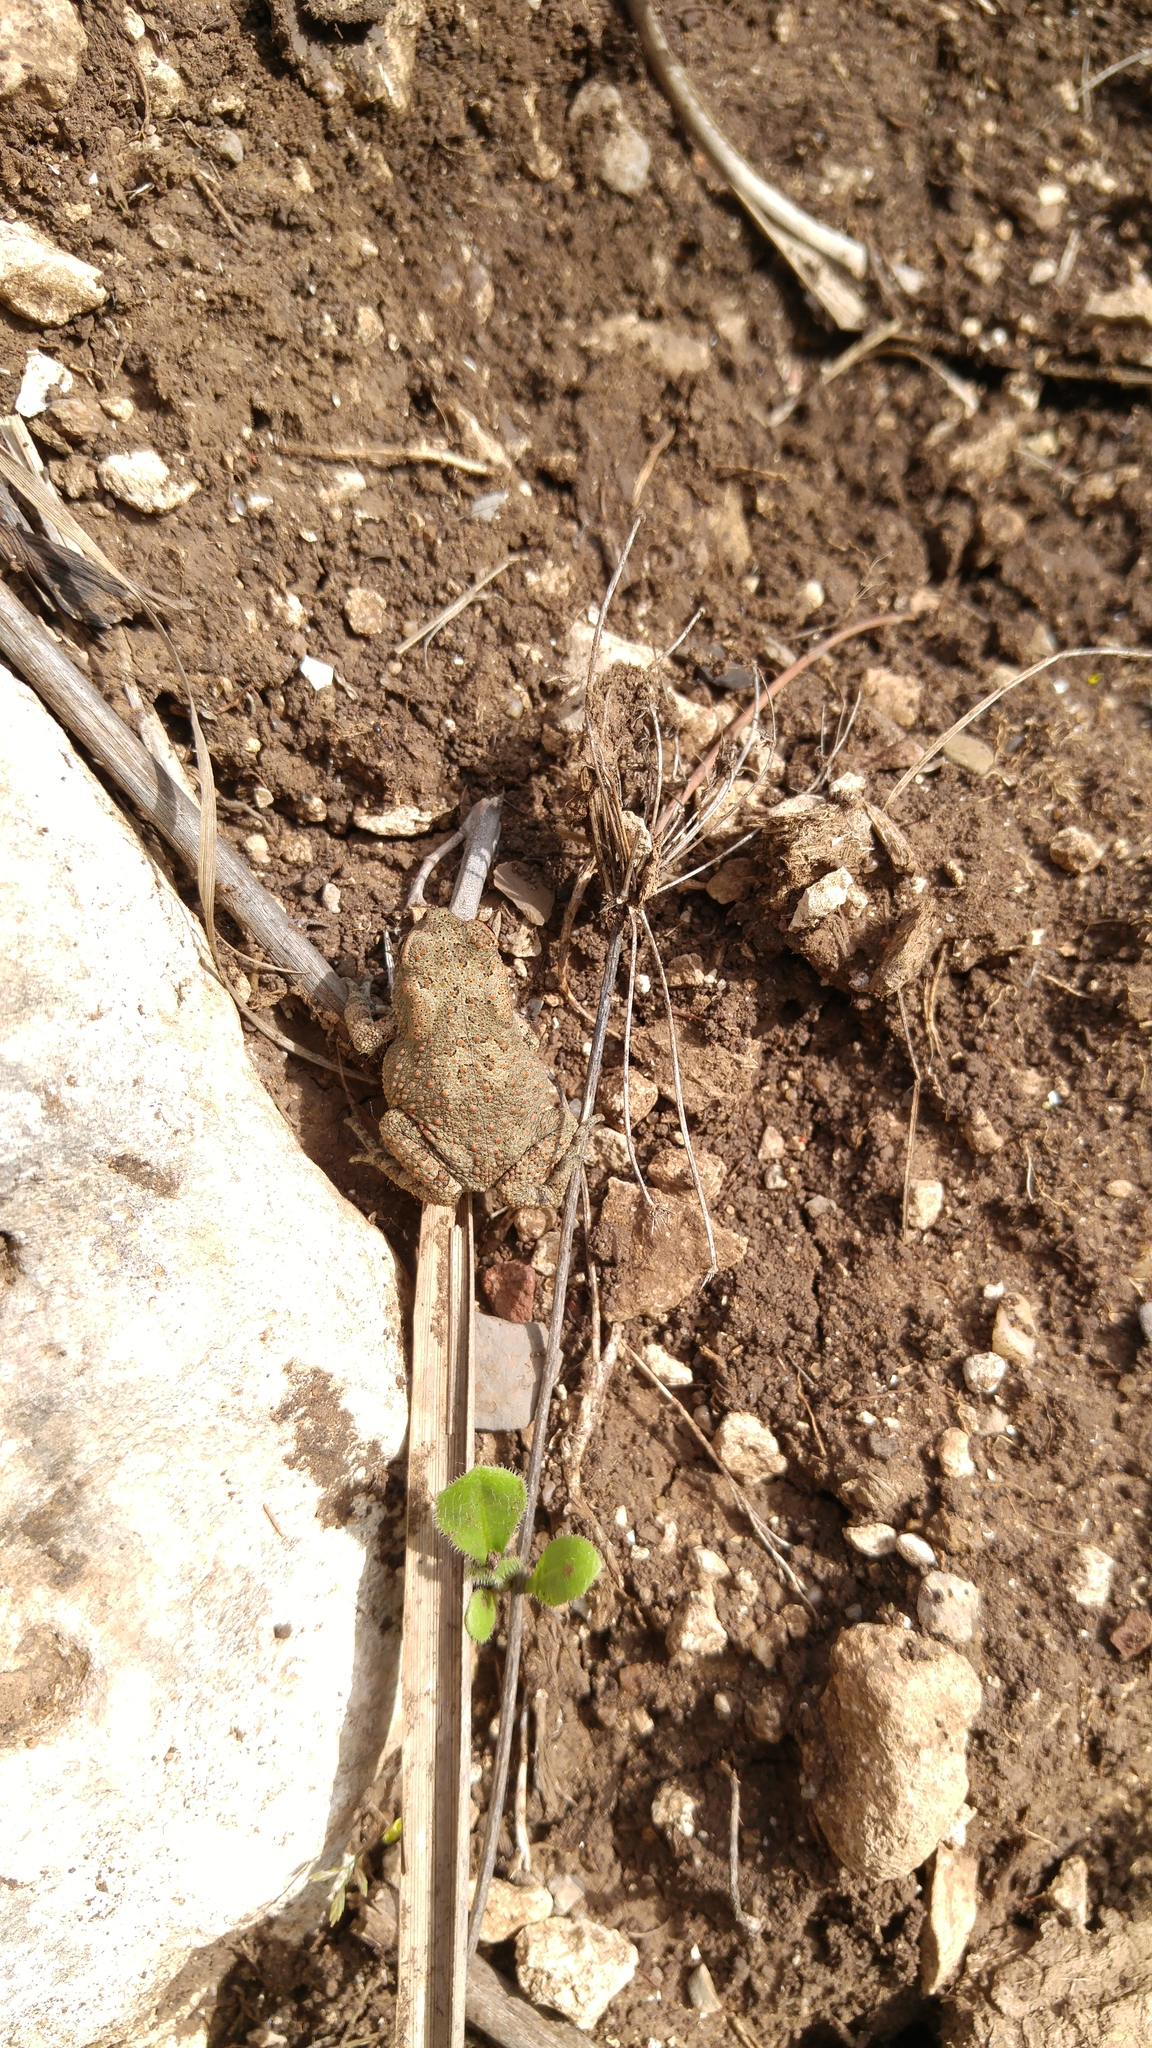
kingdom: Animalia
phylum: Chordata
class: Amphibia
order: Anura
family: Bufonidae
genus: Sclerophrys
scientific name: Sclerophrys mauritanica
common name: Berber toad
